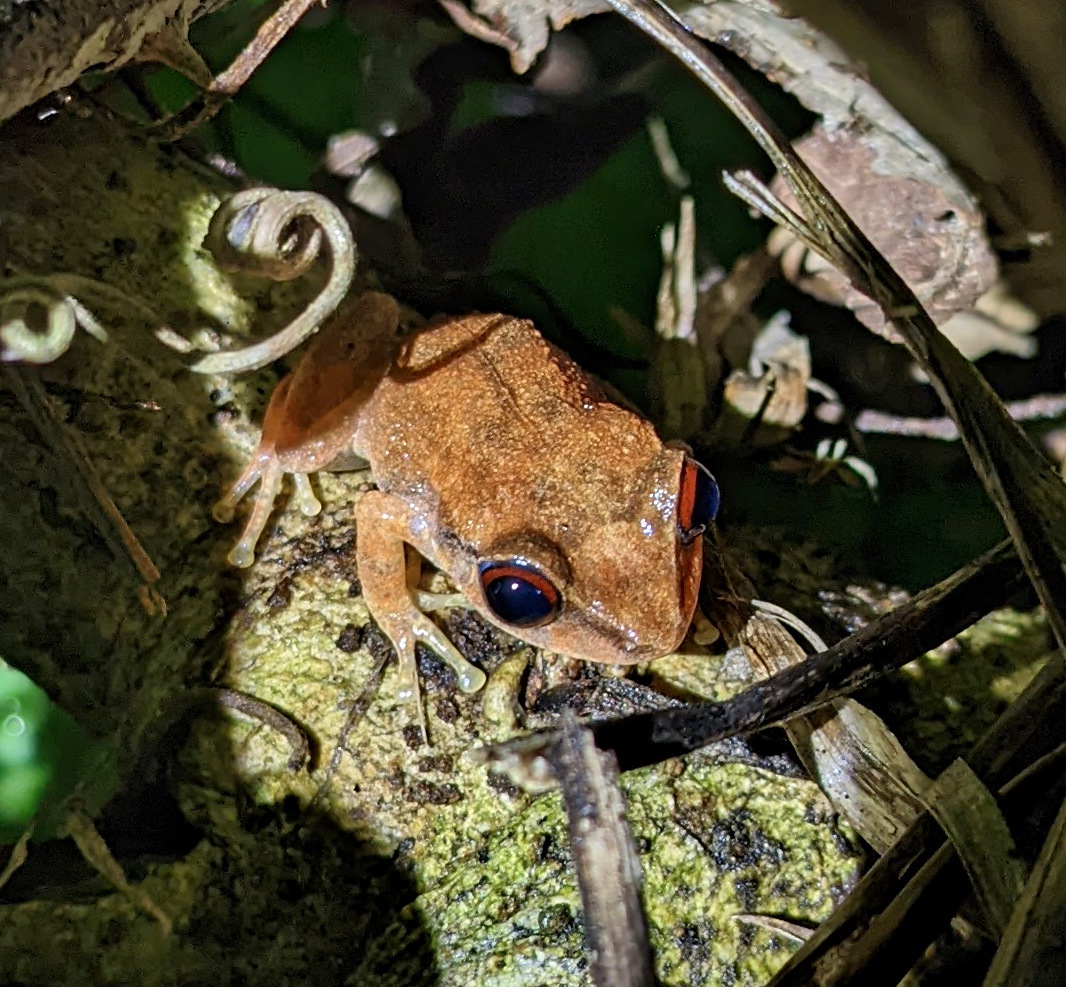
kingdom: Animalia
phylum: Chordata
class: Amphibia
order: Anura
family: Eleutherodactylidae
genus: Eleutherodactylus
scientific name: Eleutherodactylus antillensis
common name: Antillean coqui
